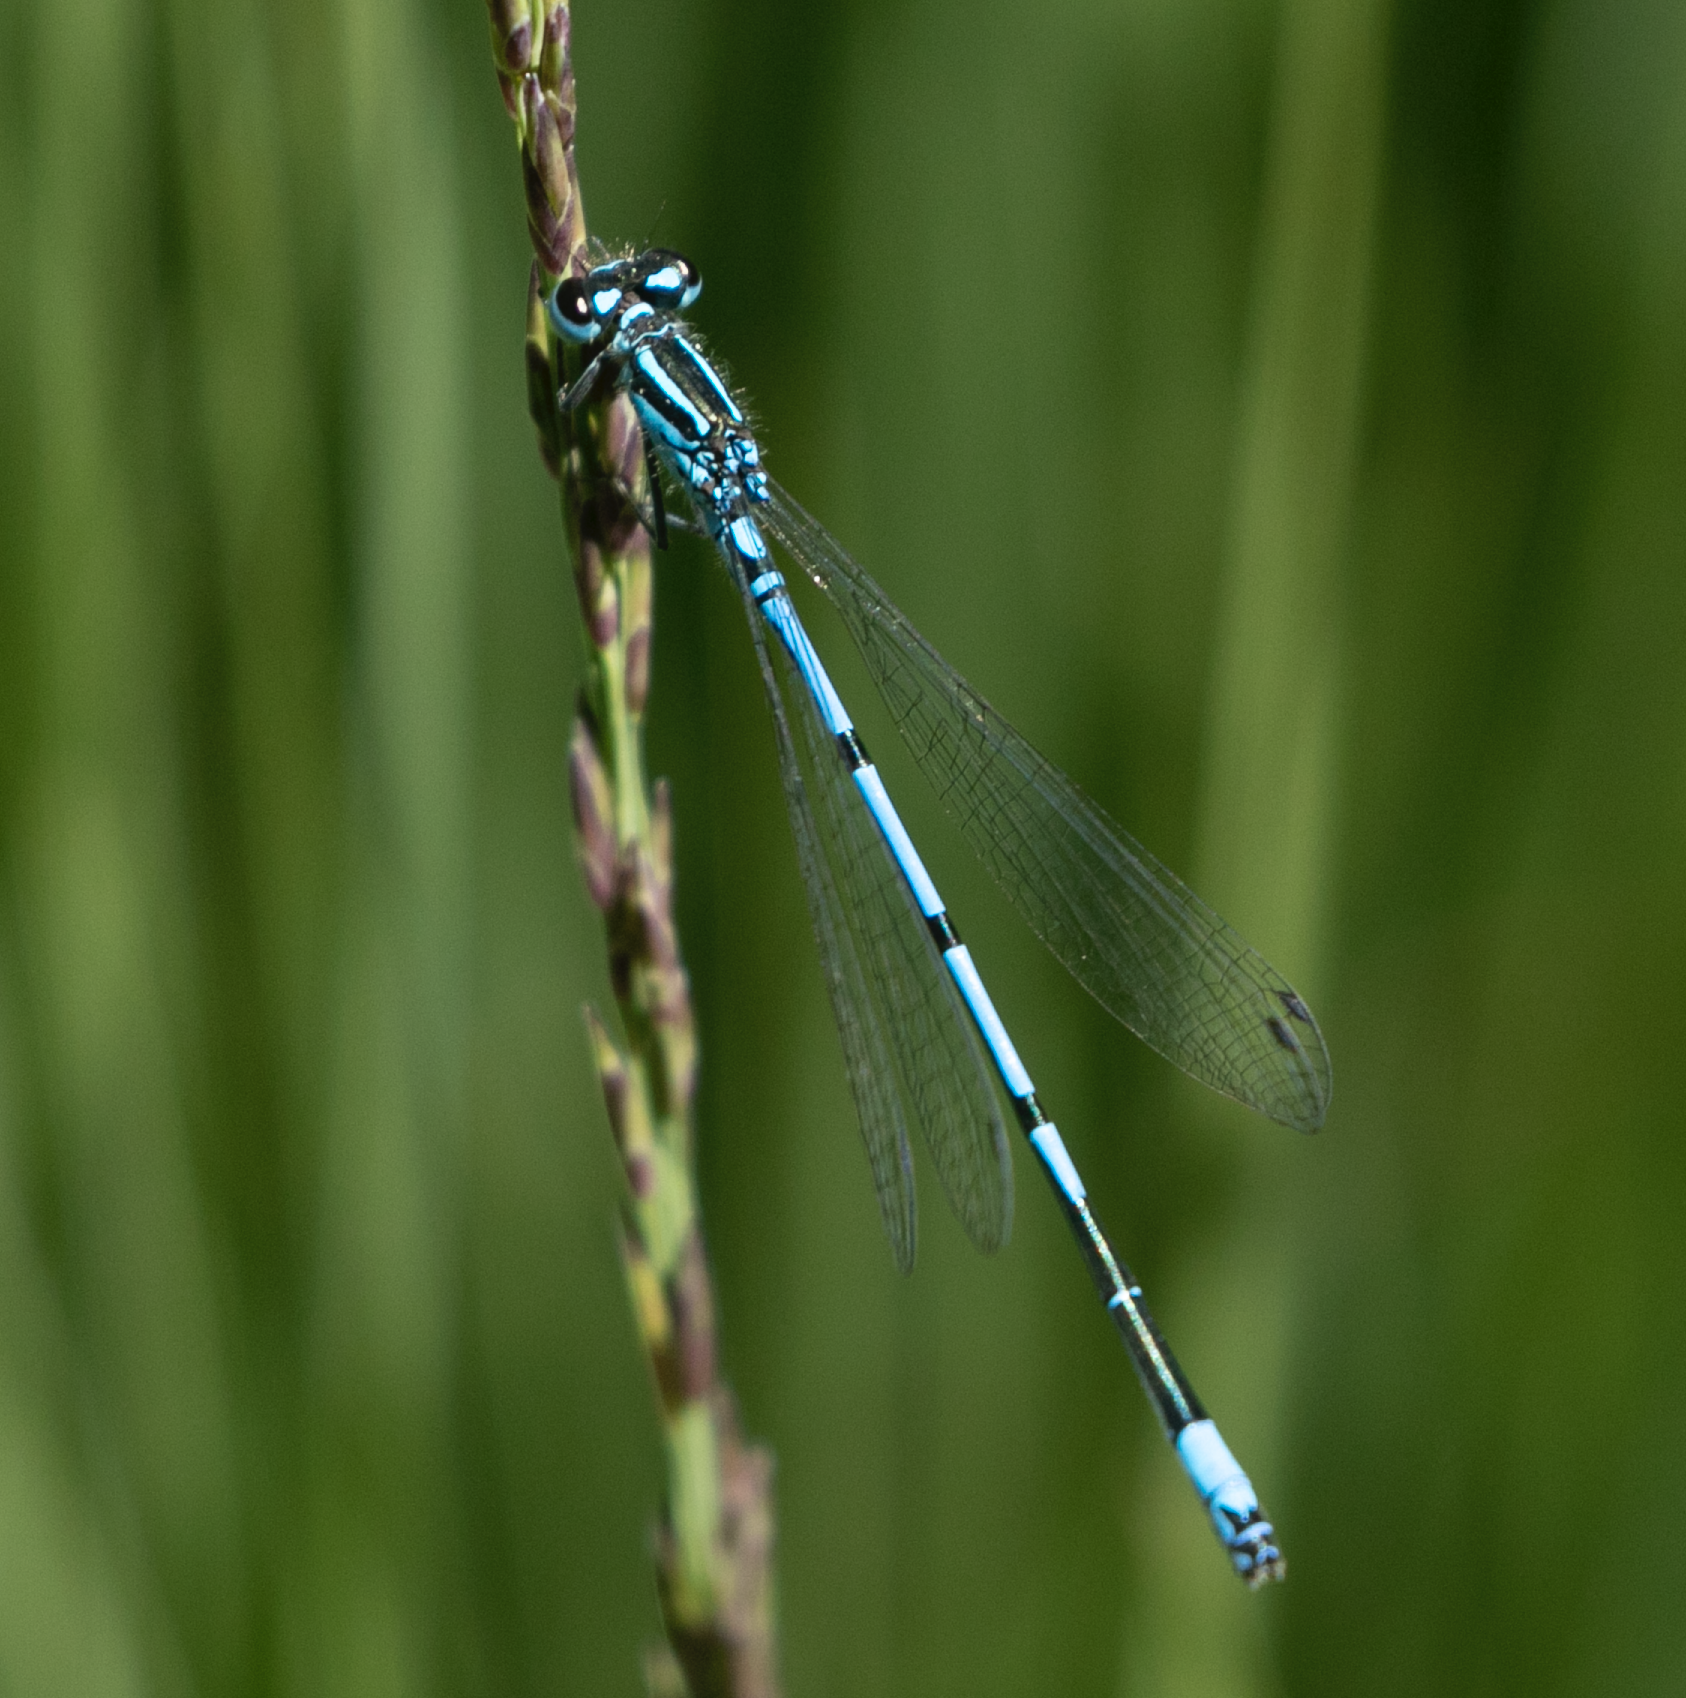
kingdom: Animalia
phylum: Arthropoda
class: Insecta
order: Odonata
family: Coenagrionidae
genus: Coenagrion
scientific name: Coenagrion puella
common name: Azure damselfly
